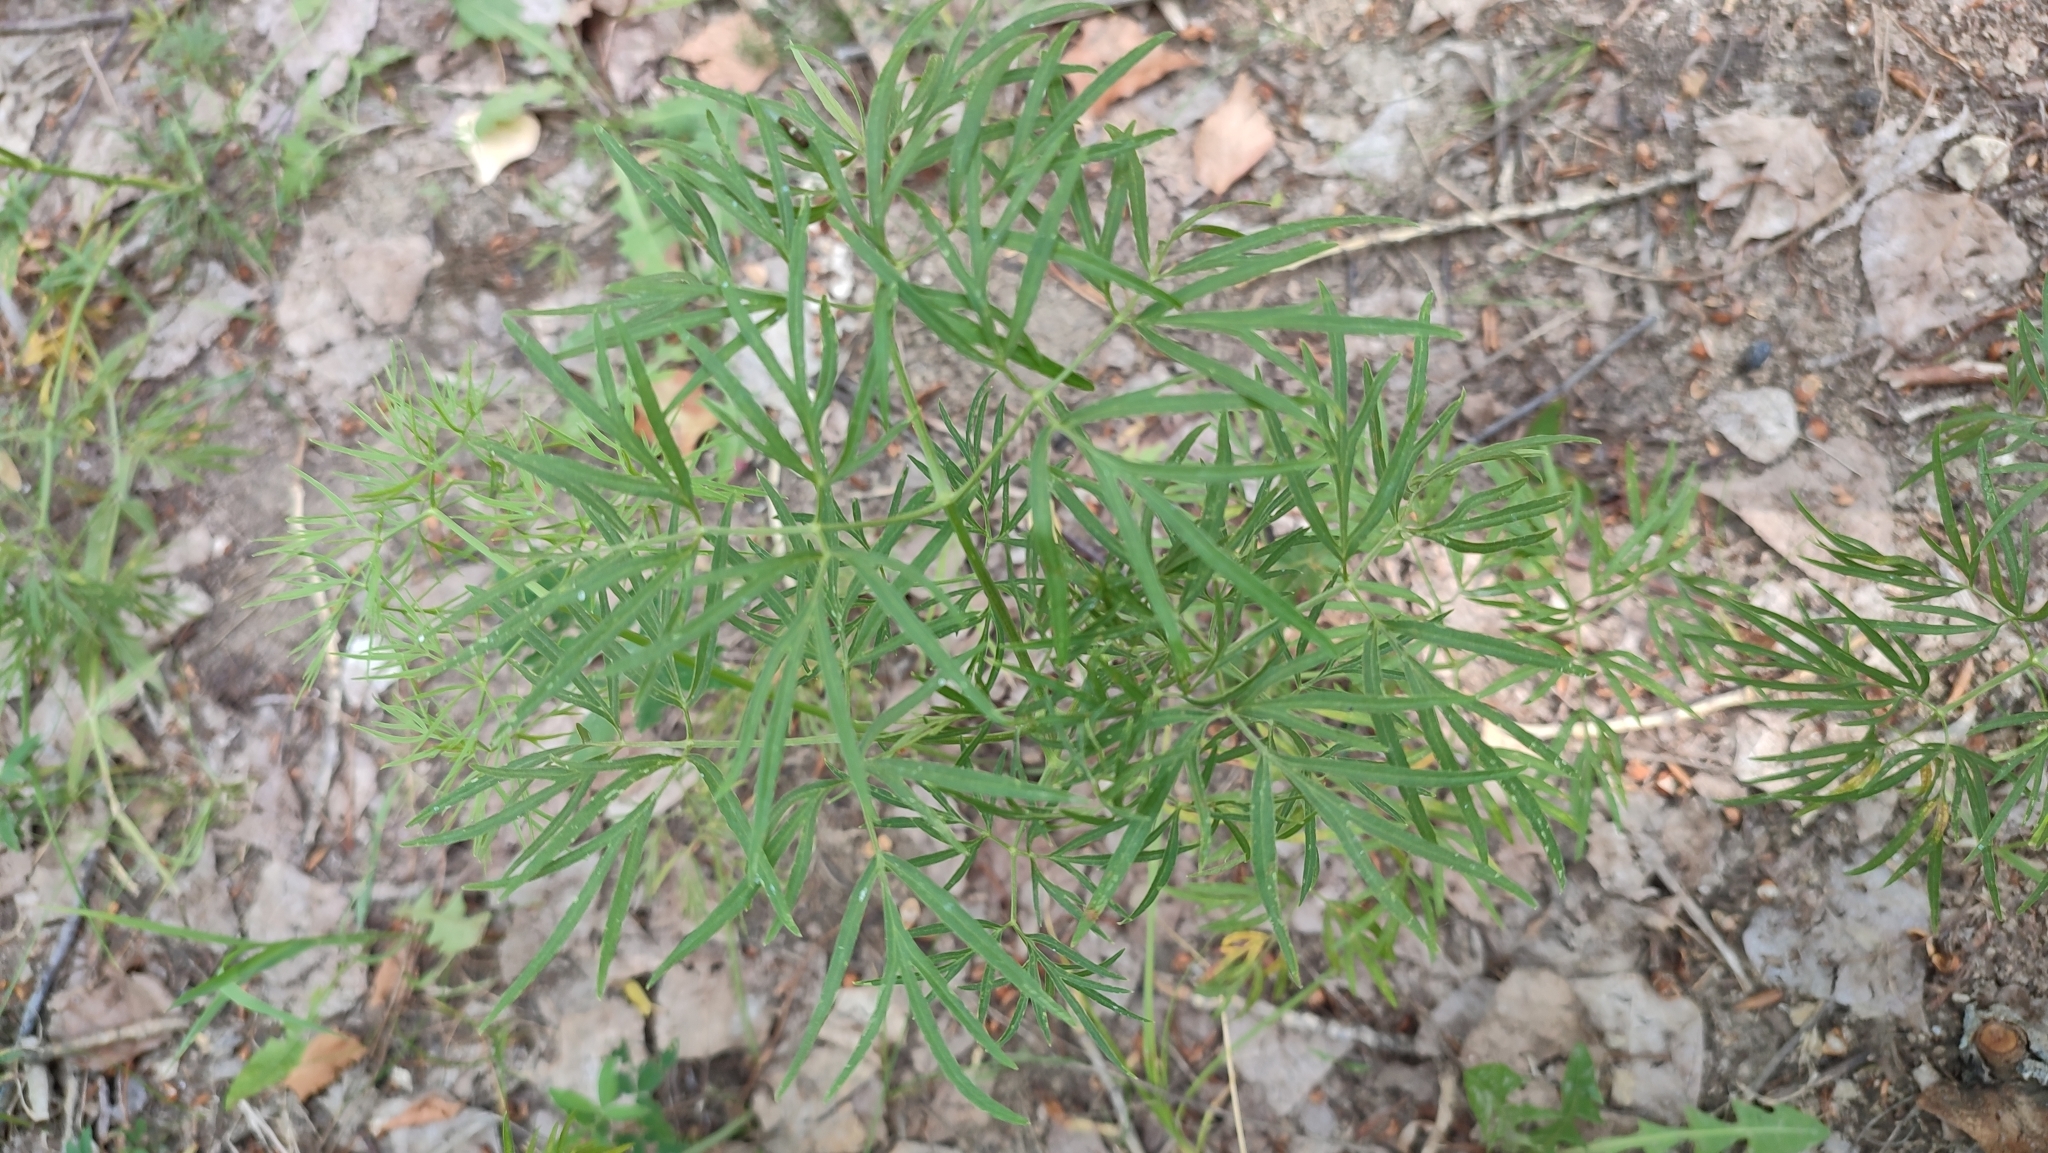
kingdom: Plantae
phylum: Tracheophyta
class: Magnoliopsida
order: Apiales
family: Apiaceae
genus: Cenolophium
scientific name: Cenolophium fischeri
